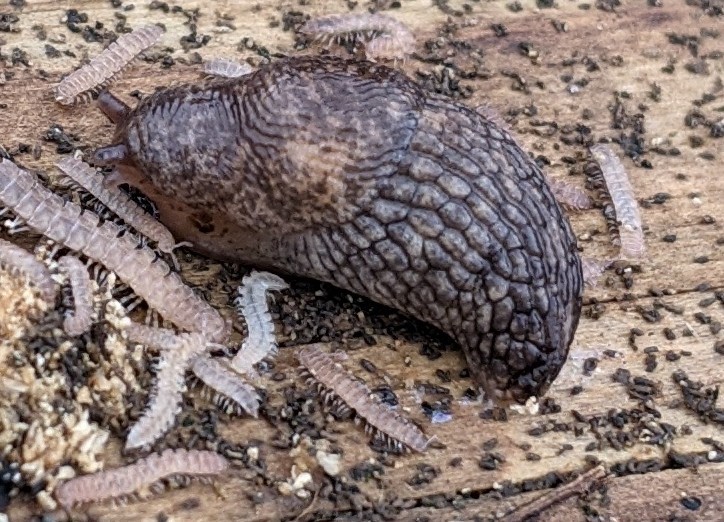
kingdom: Animalia
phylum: Mollusca
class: Gastropoda
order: Stylommatophora
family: Agriolimacidae
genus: Deroceras
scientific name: Deroceras reticulatum
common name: Gray field slug
